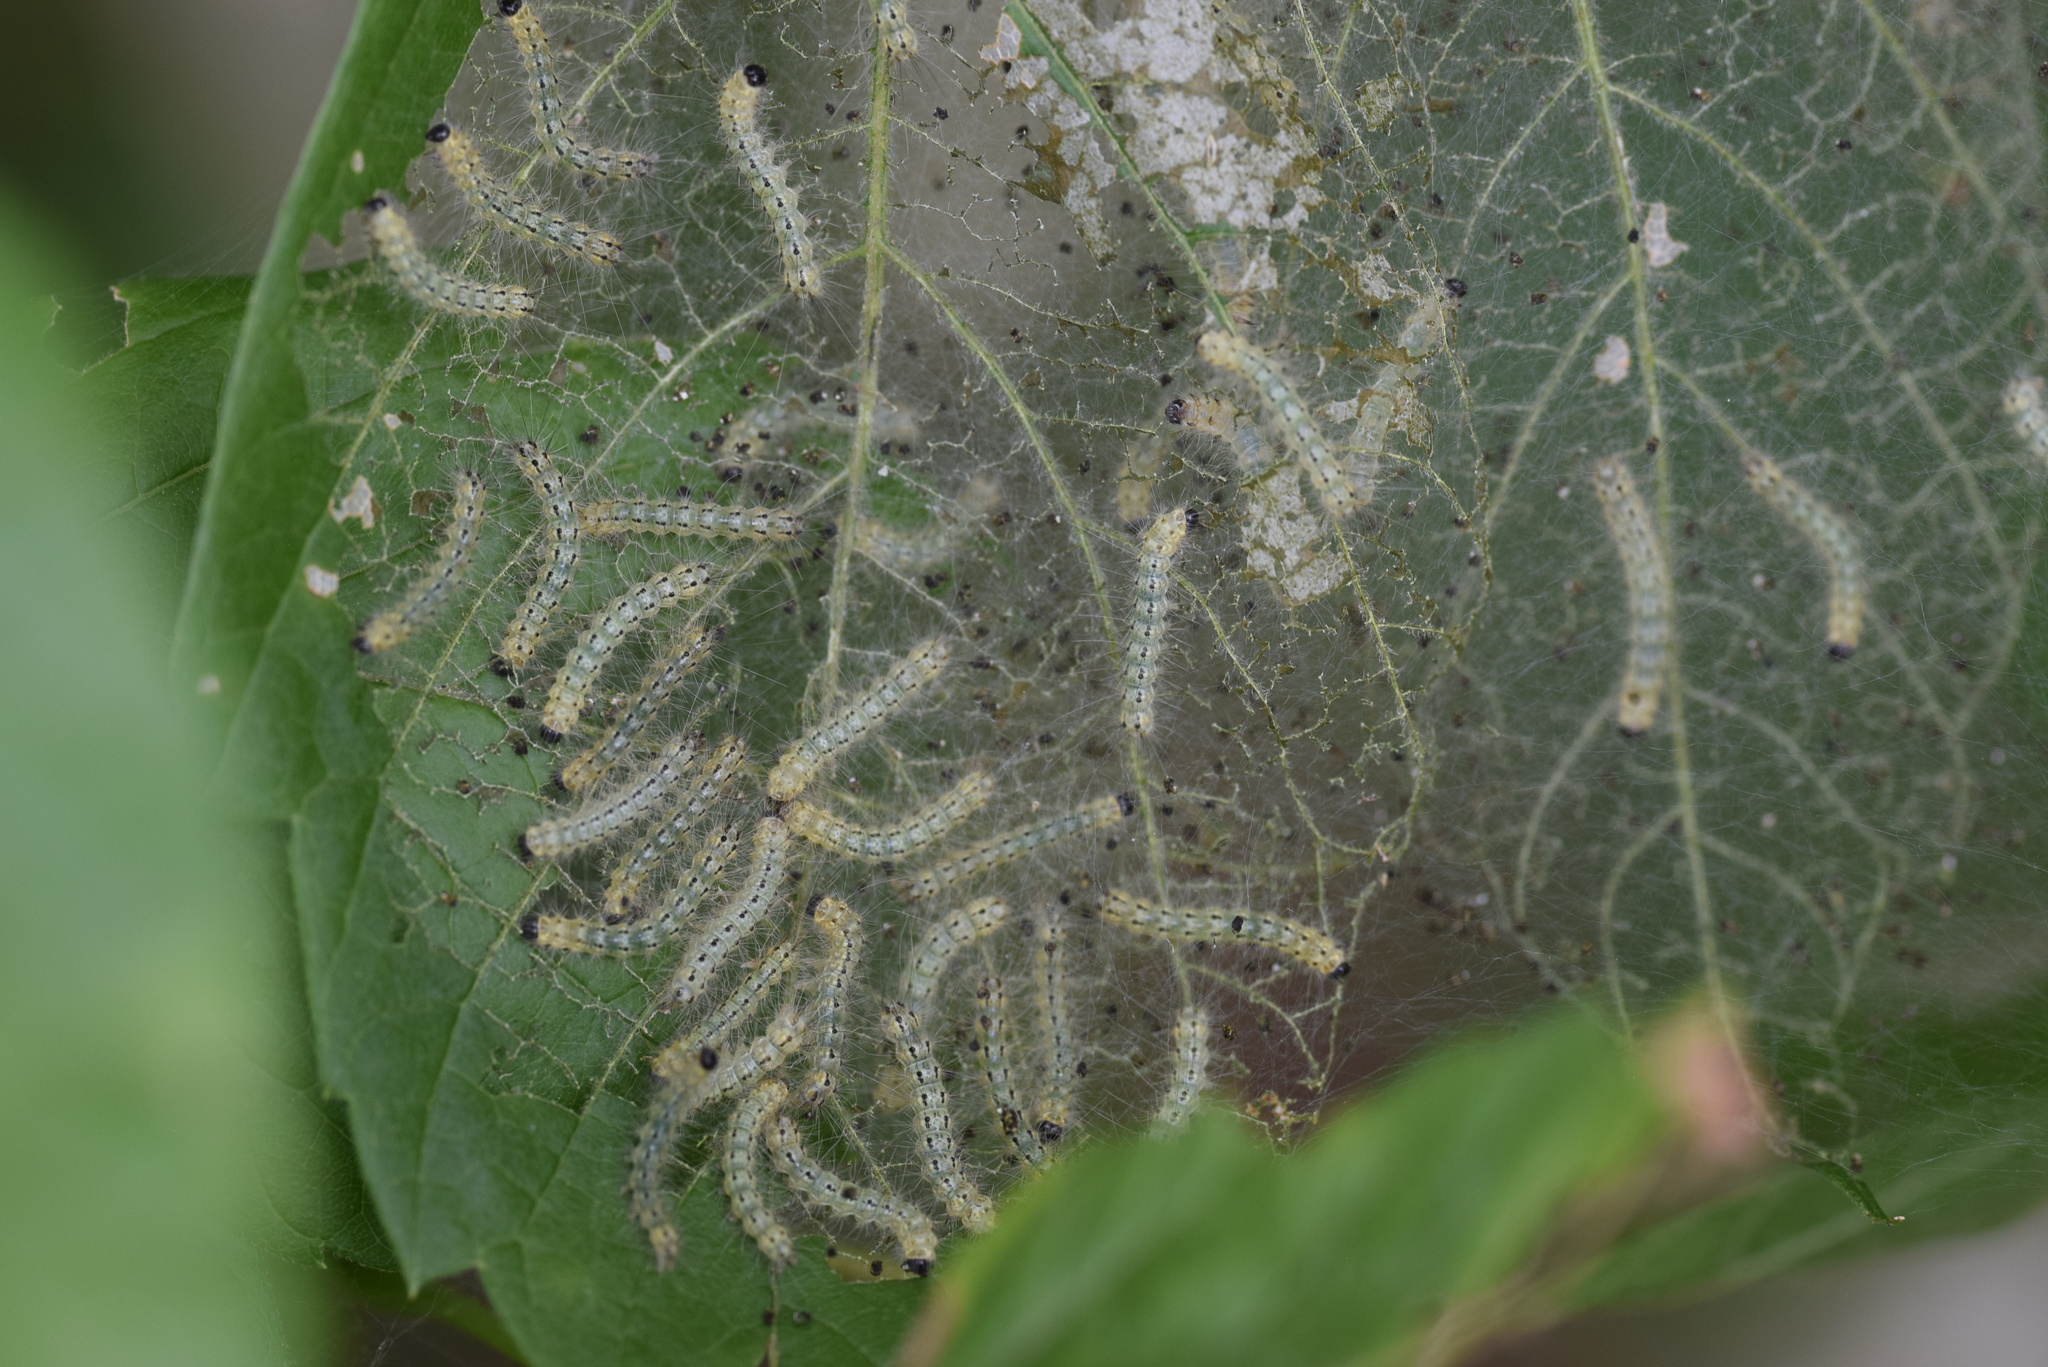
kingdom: Animalia
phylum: Arthropoda
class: Insecta
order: Lepidoptera
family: Erebidae
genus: Hyphantria
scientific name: Hyphantria cunea
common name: American white moth
